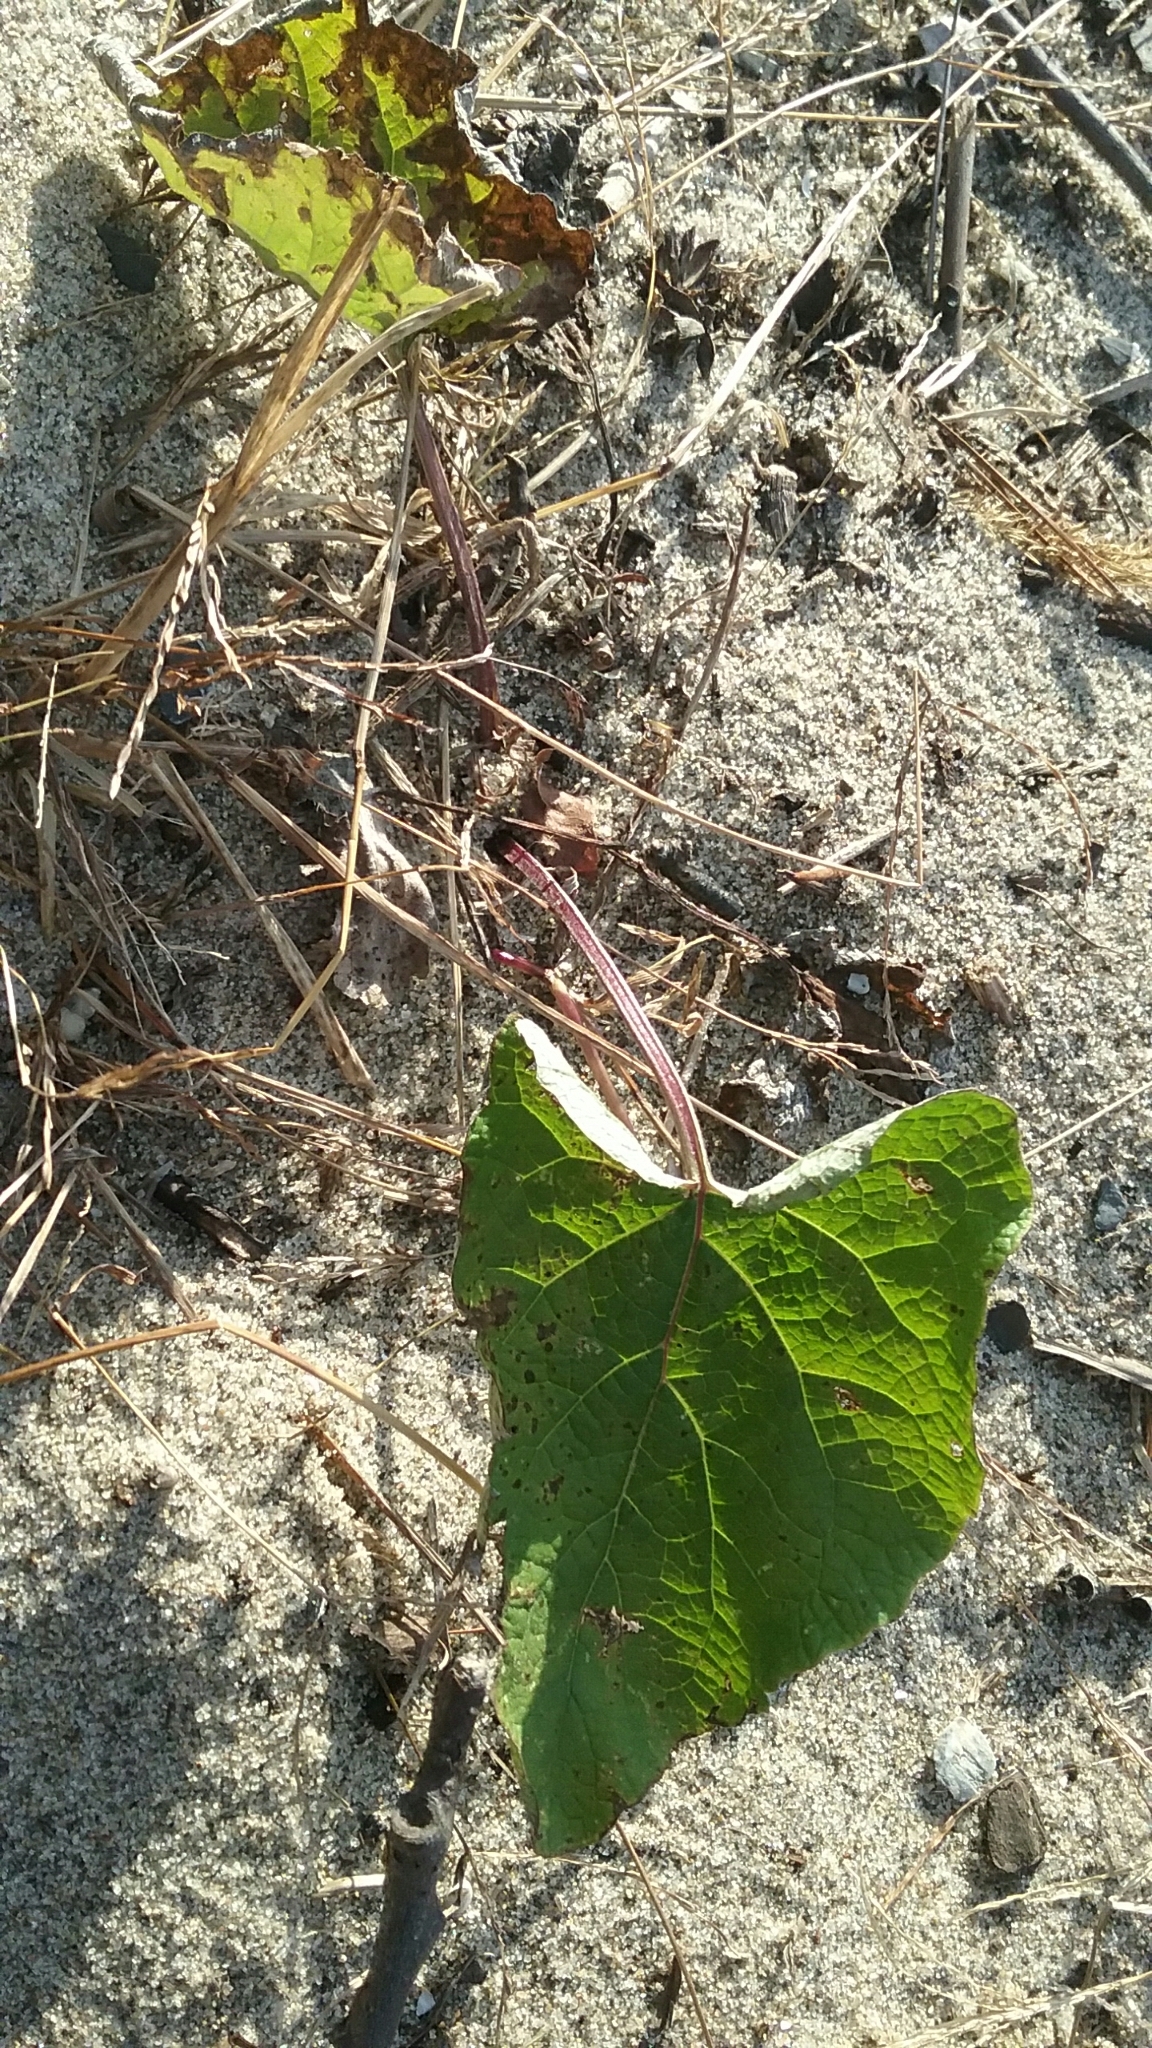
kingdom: Plantae
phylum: Tracheophyta
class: Magnoliopsida
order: Asterales
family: Asteraceae
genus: Tussilago
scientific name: Tussilago farfara
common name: Coltsfoot
